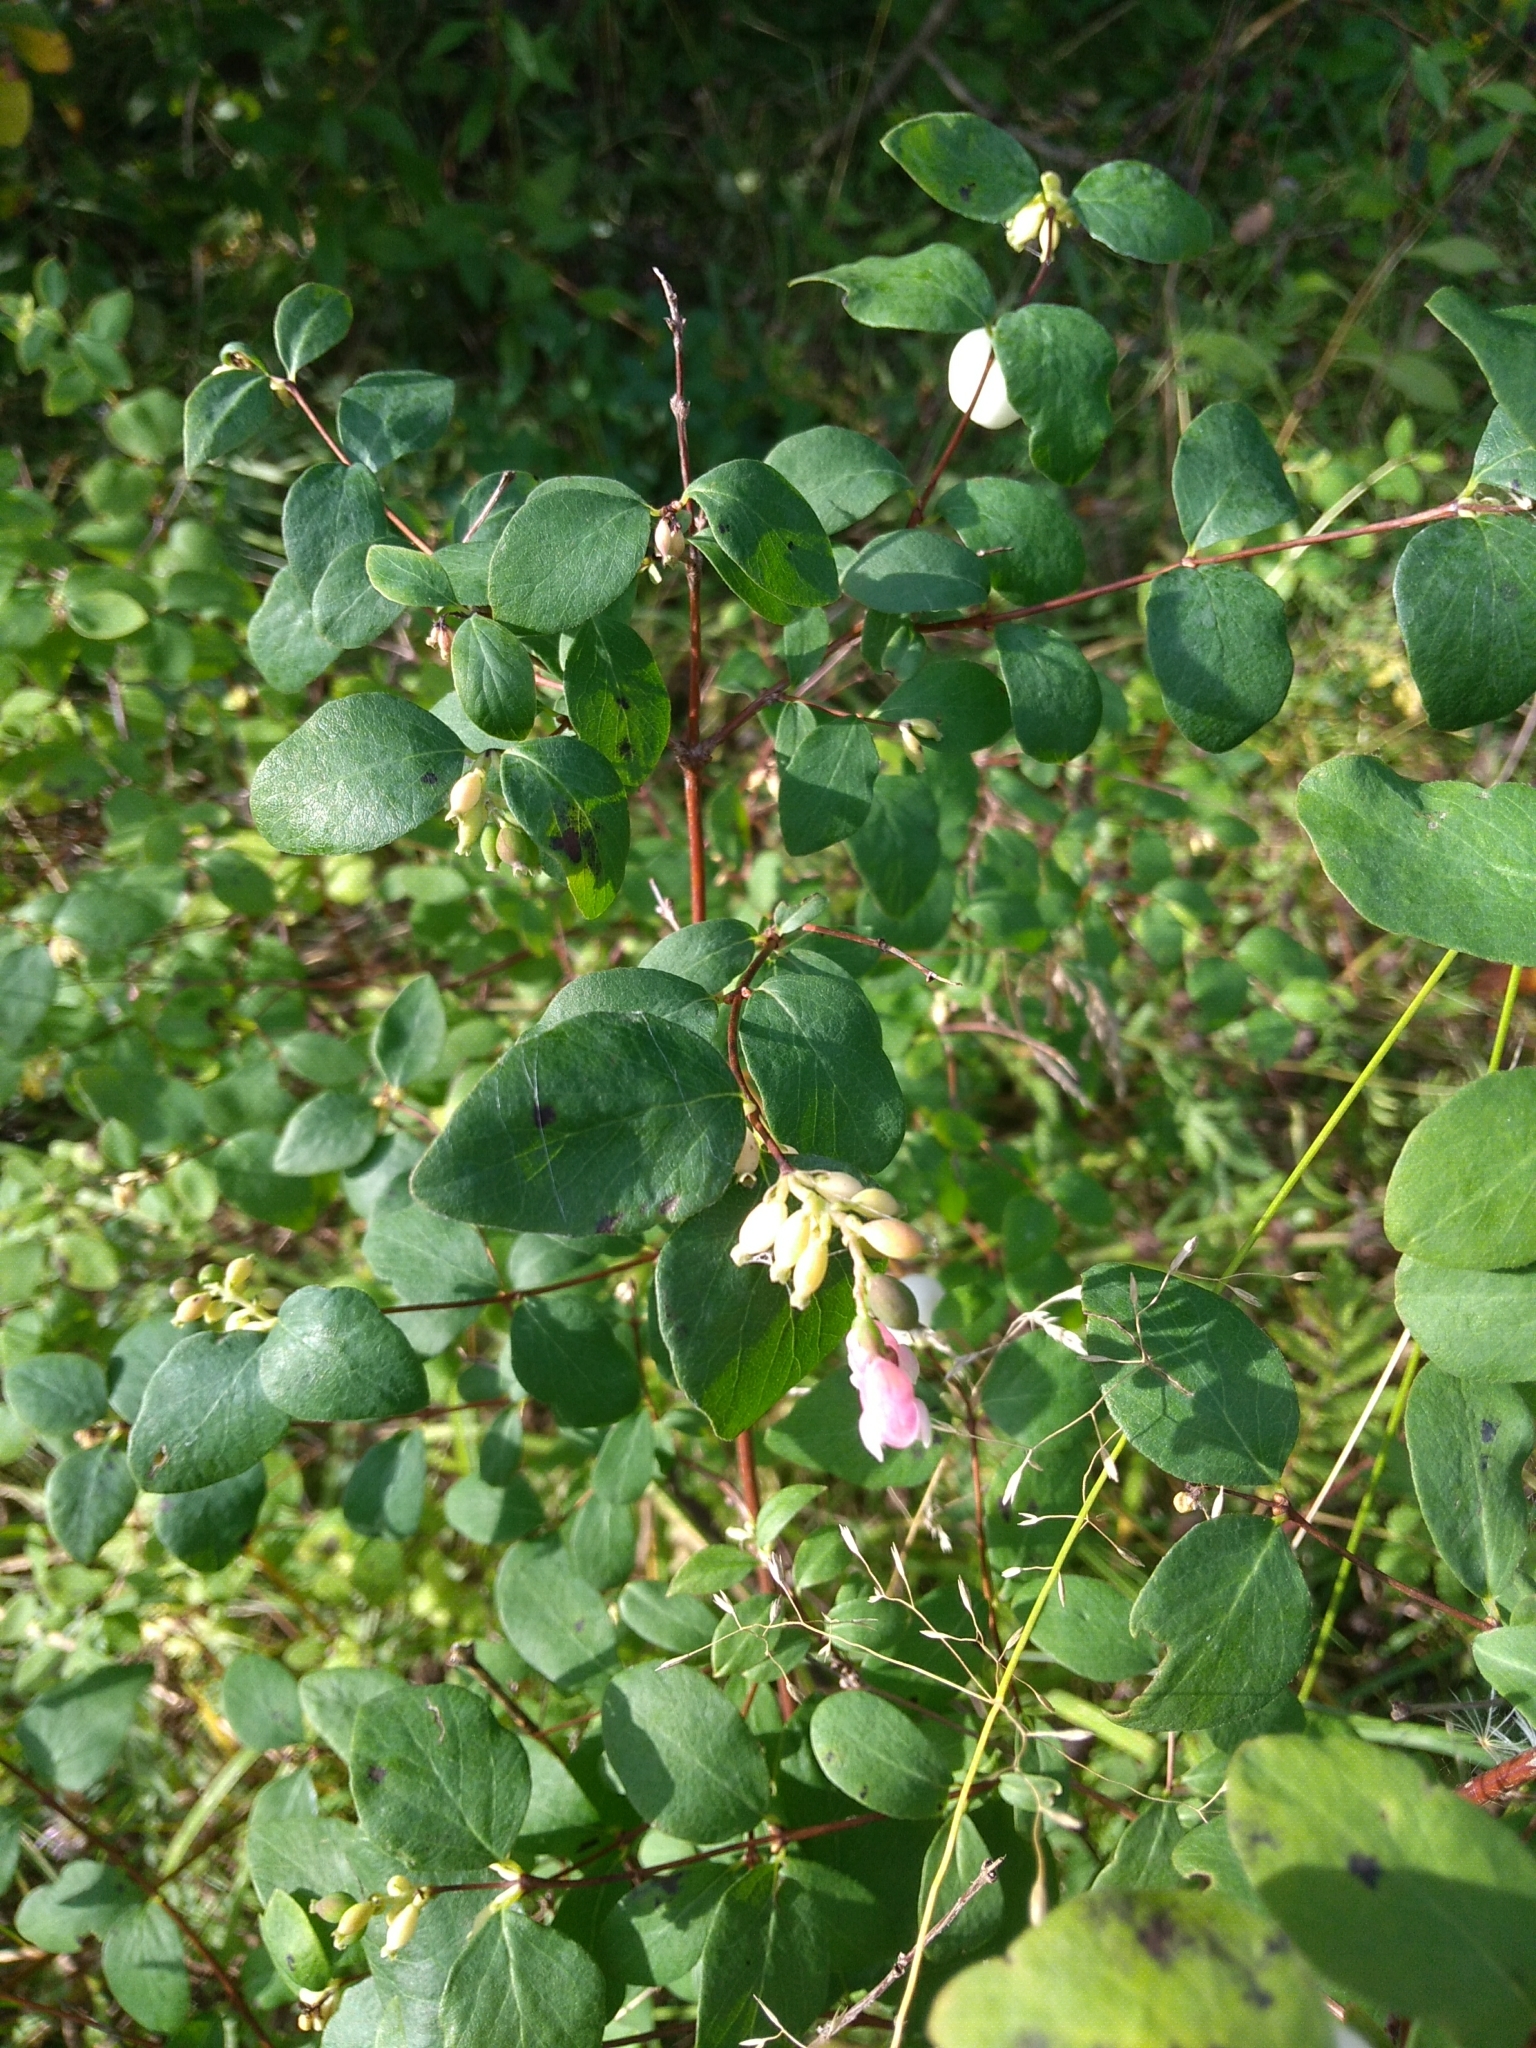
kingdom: Plantae
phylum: Tracheophyta
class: Magnoliopsida
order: Dipsacales
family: Caprifoliaceae
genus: Symphoricarpos
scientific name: Symphoricarpos albus
